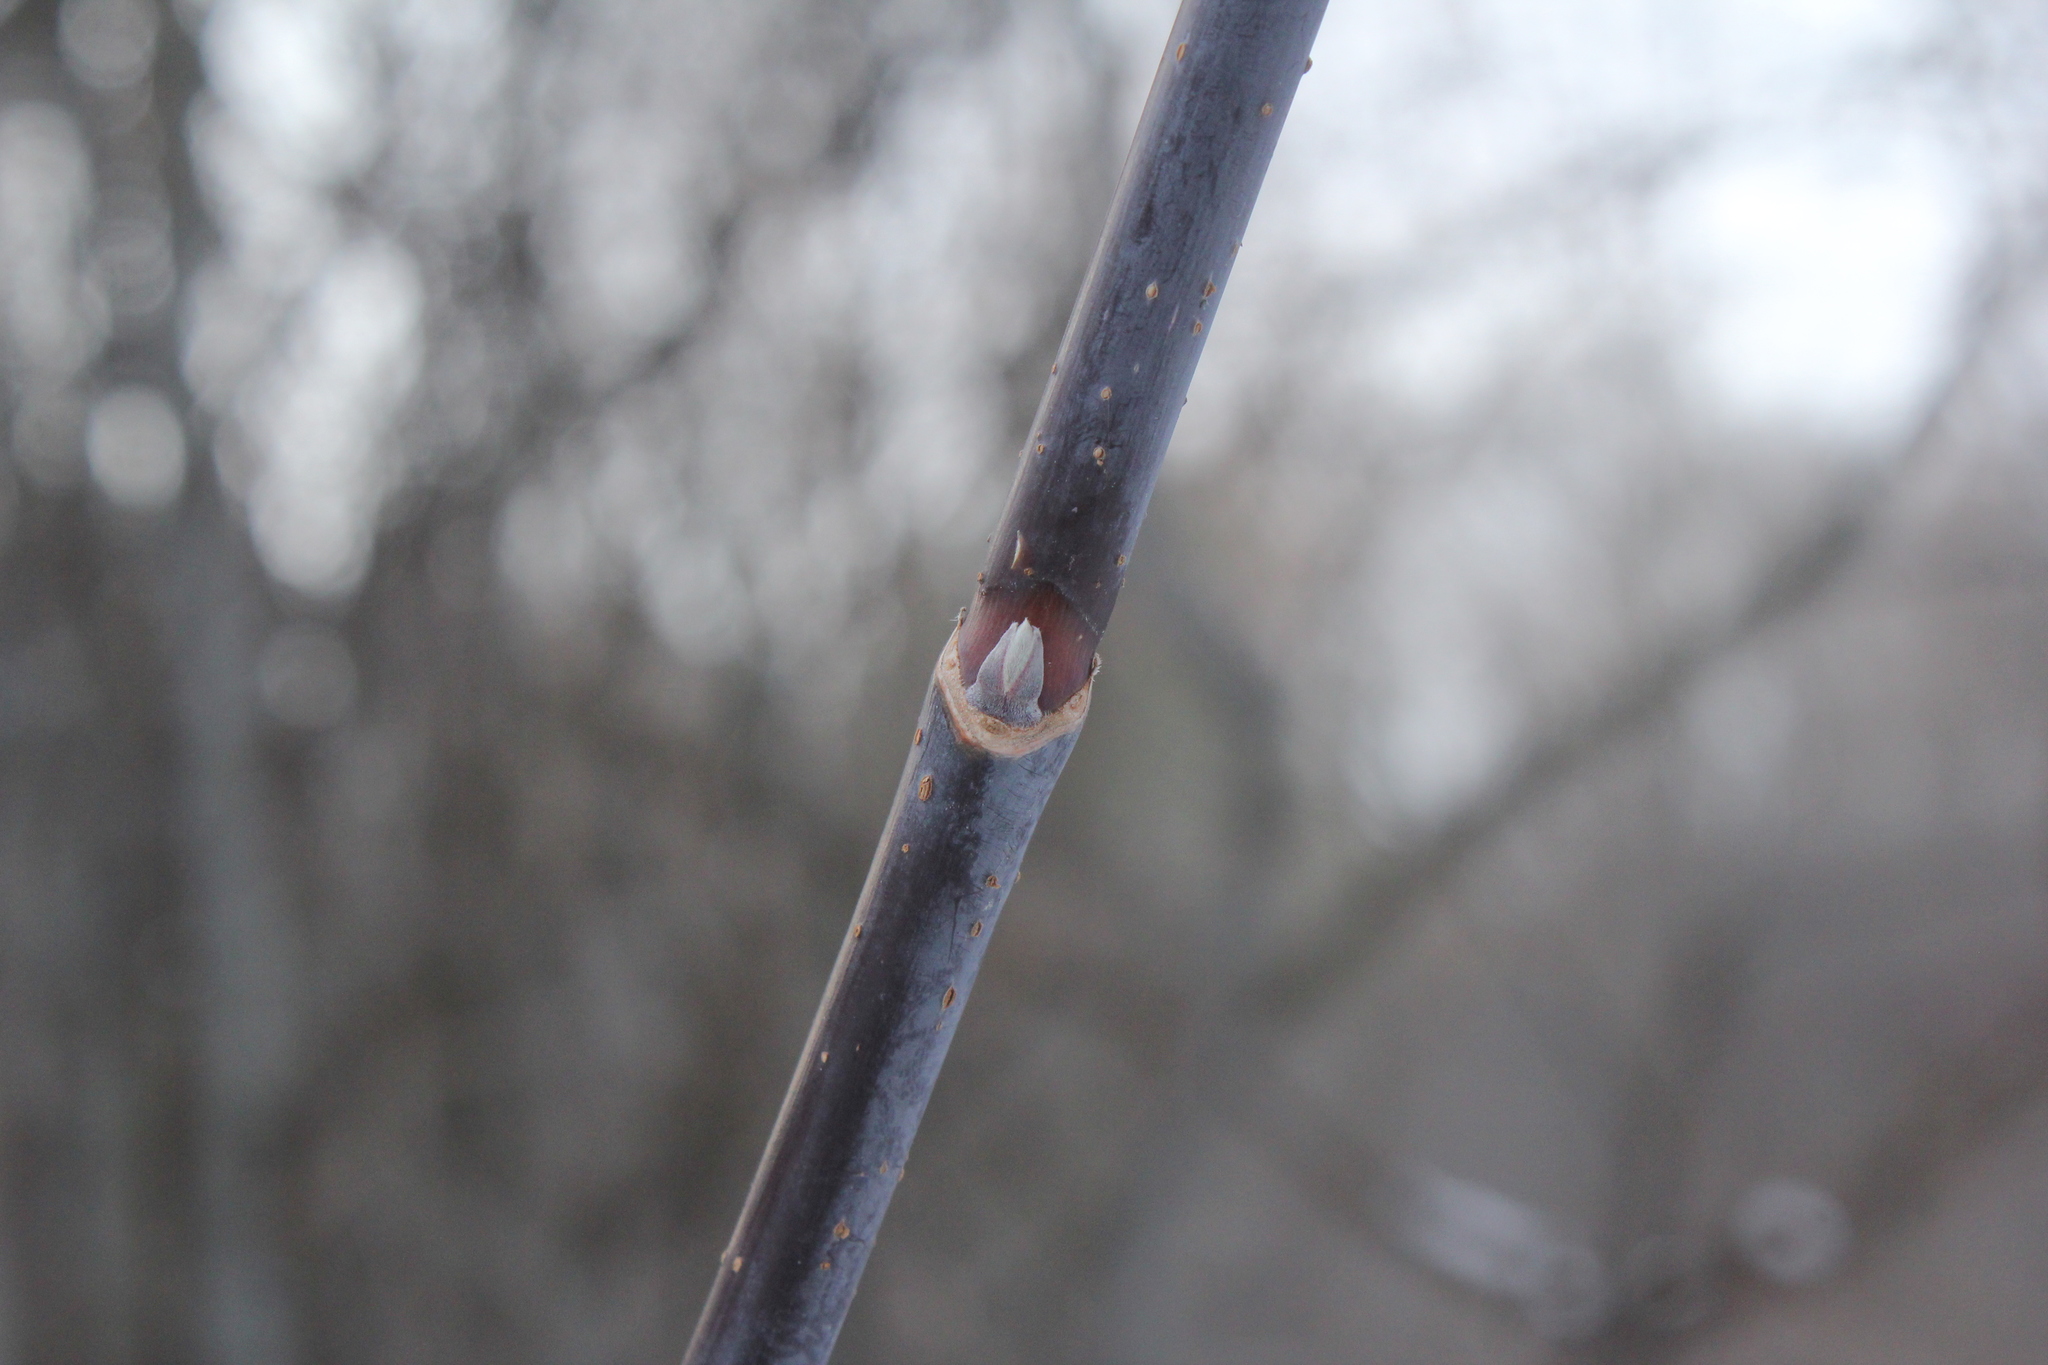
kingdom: Plantae
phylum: Tracheophyta
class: Magnoliopsida
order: Sapindales
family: Sapindaceae
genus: Acer
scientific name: Acer negundo
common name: Ashleaf maple
